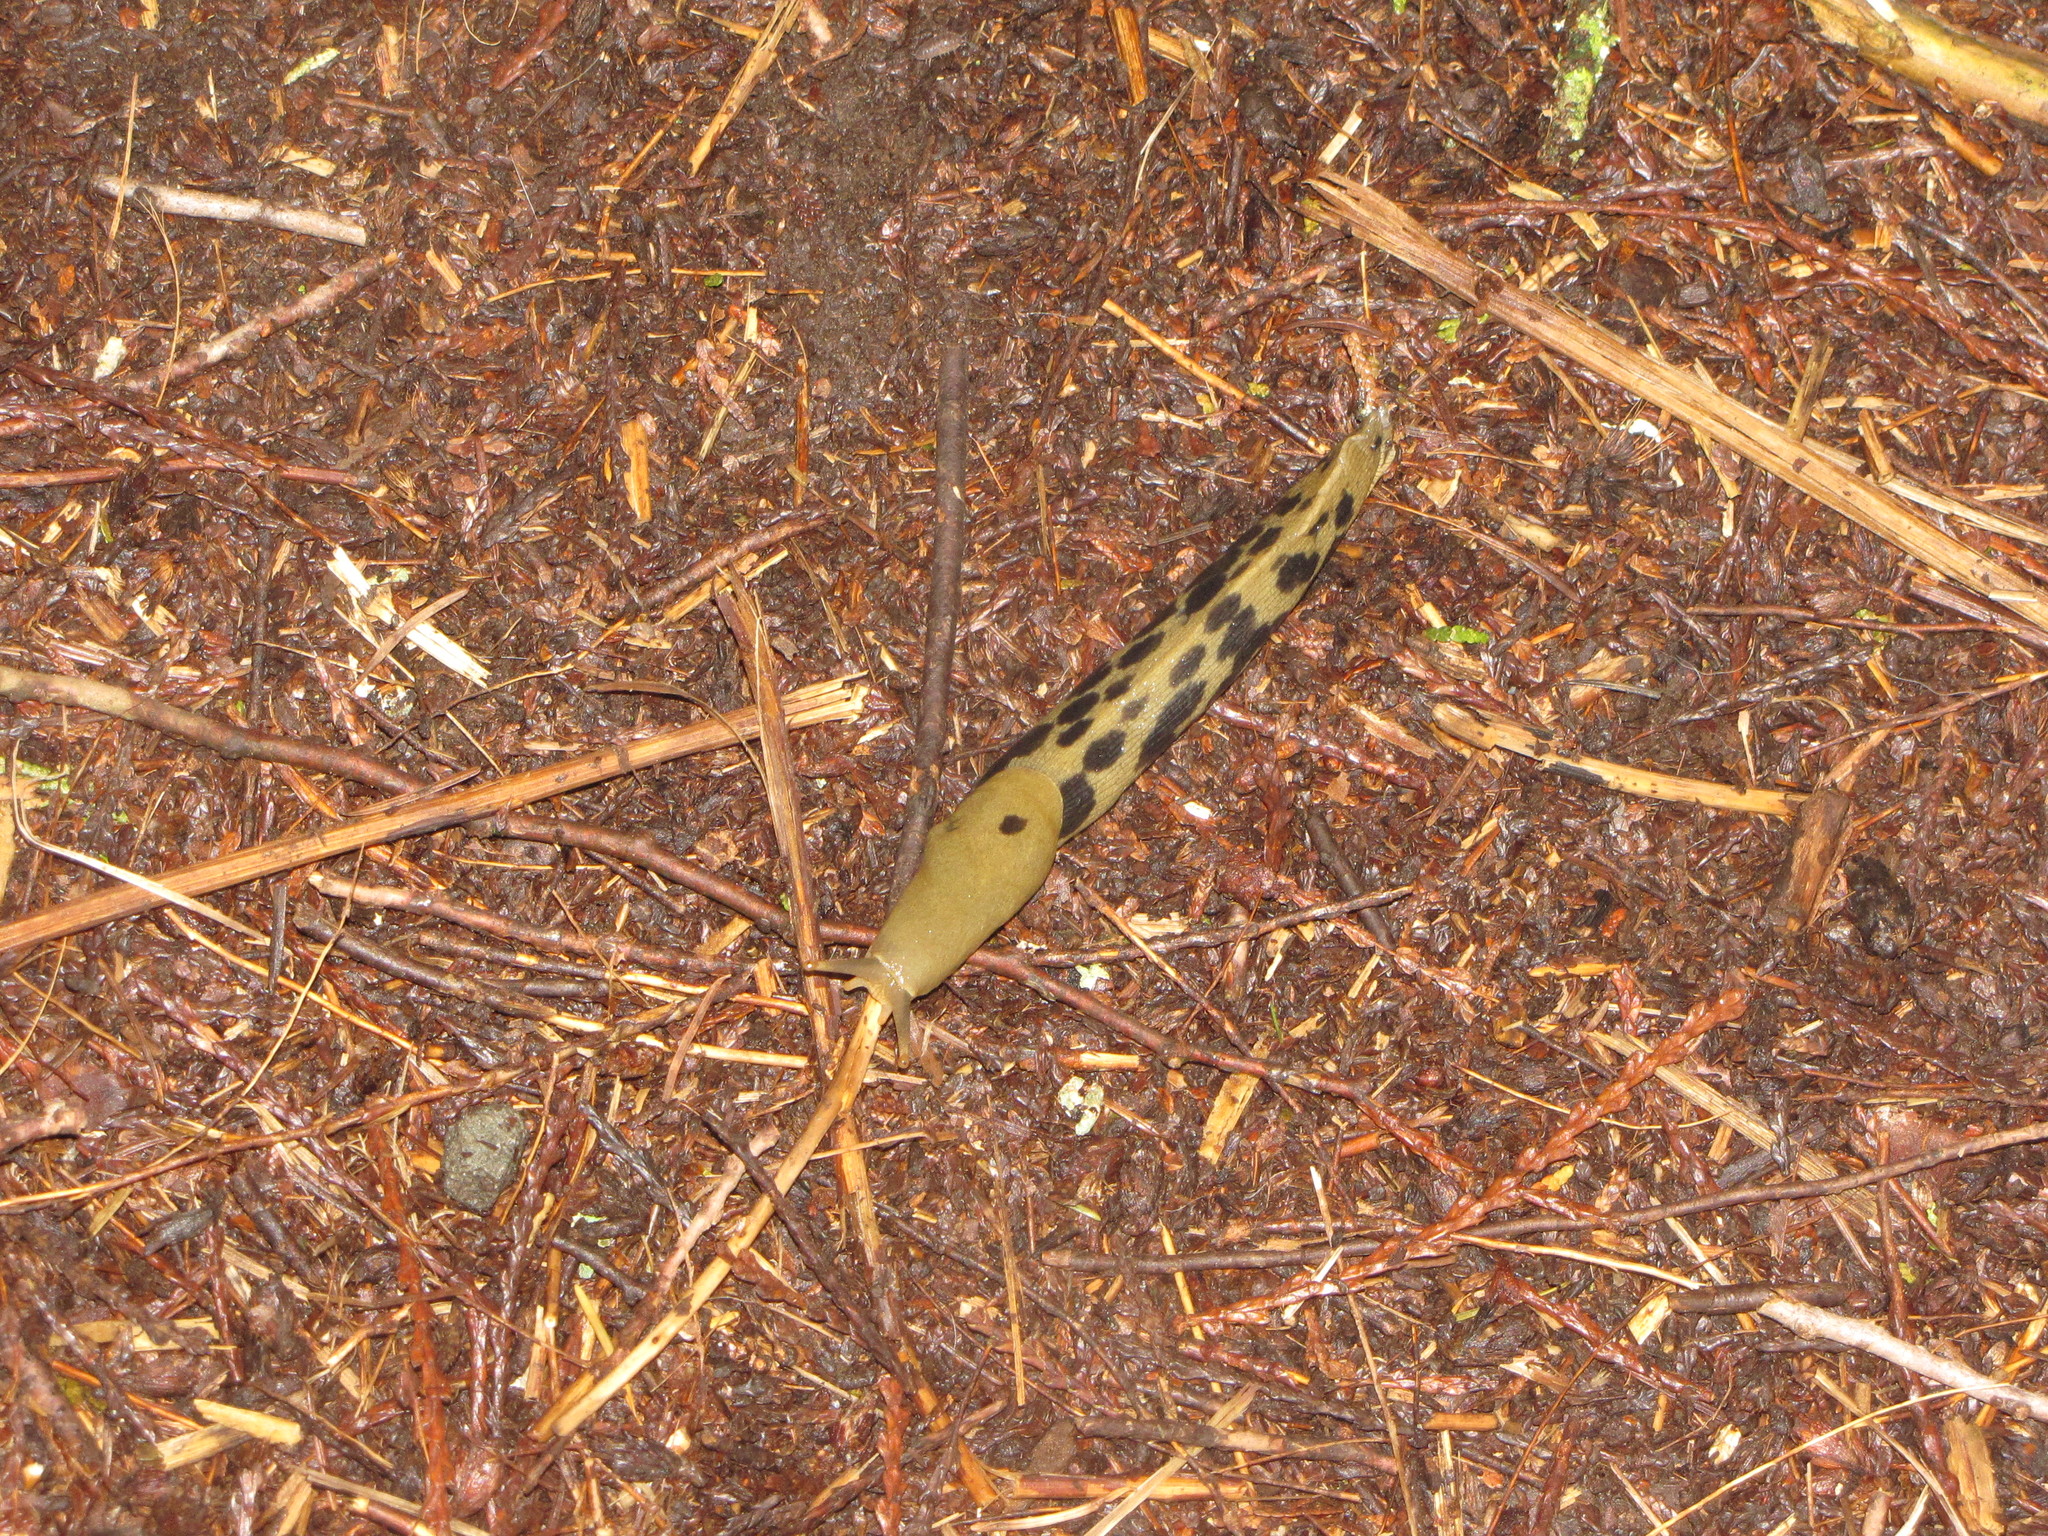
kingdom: Animalia
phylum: Mollusca
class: Gastropoda
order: Stylommatophora
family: Ariolimacidae
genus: Ariolimax
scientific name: Ariolimax columbianus
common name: Pacific banana slug
